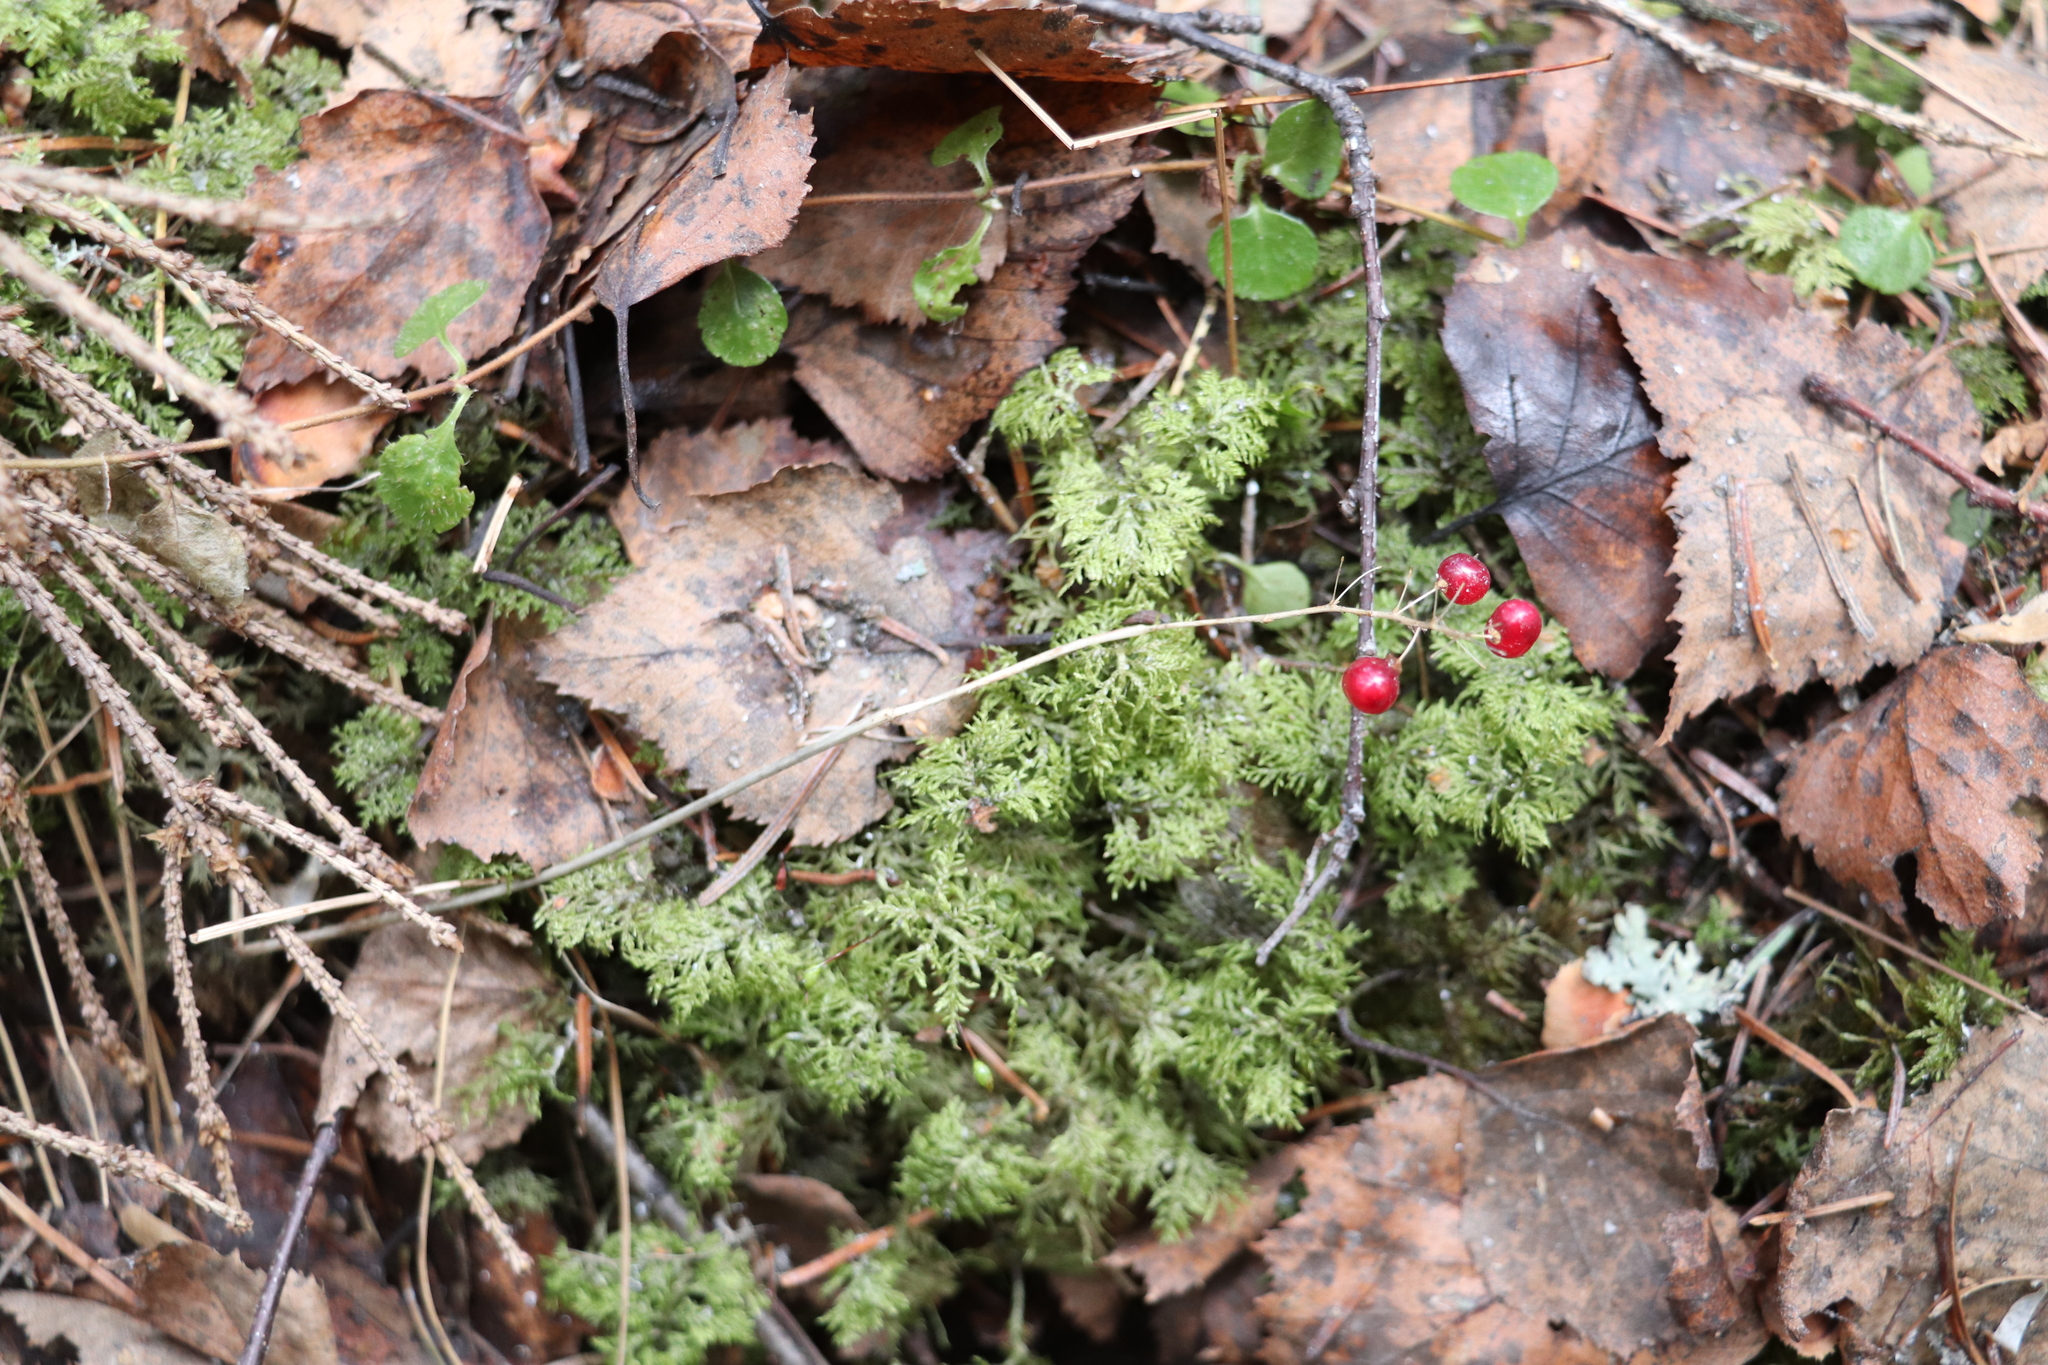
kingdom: Plantae
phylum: Tracheophyta
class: Liliopsida
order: Asparagales
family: Asparagaceae
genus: Maianthemum
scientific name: Maianthemum bifolium
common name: May lily
